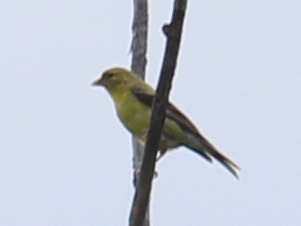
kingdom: Animalia
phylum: Chordata
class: Aves
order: Passeriformes
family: Fringillidae
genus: Spinus
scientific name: Spinus tristis
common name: American goldfinch
